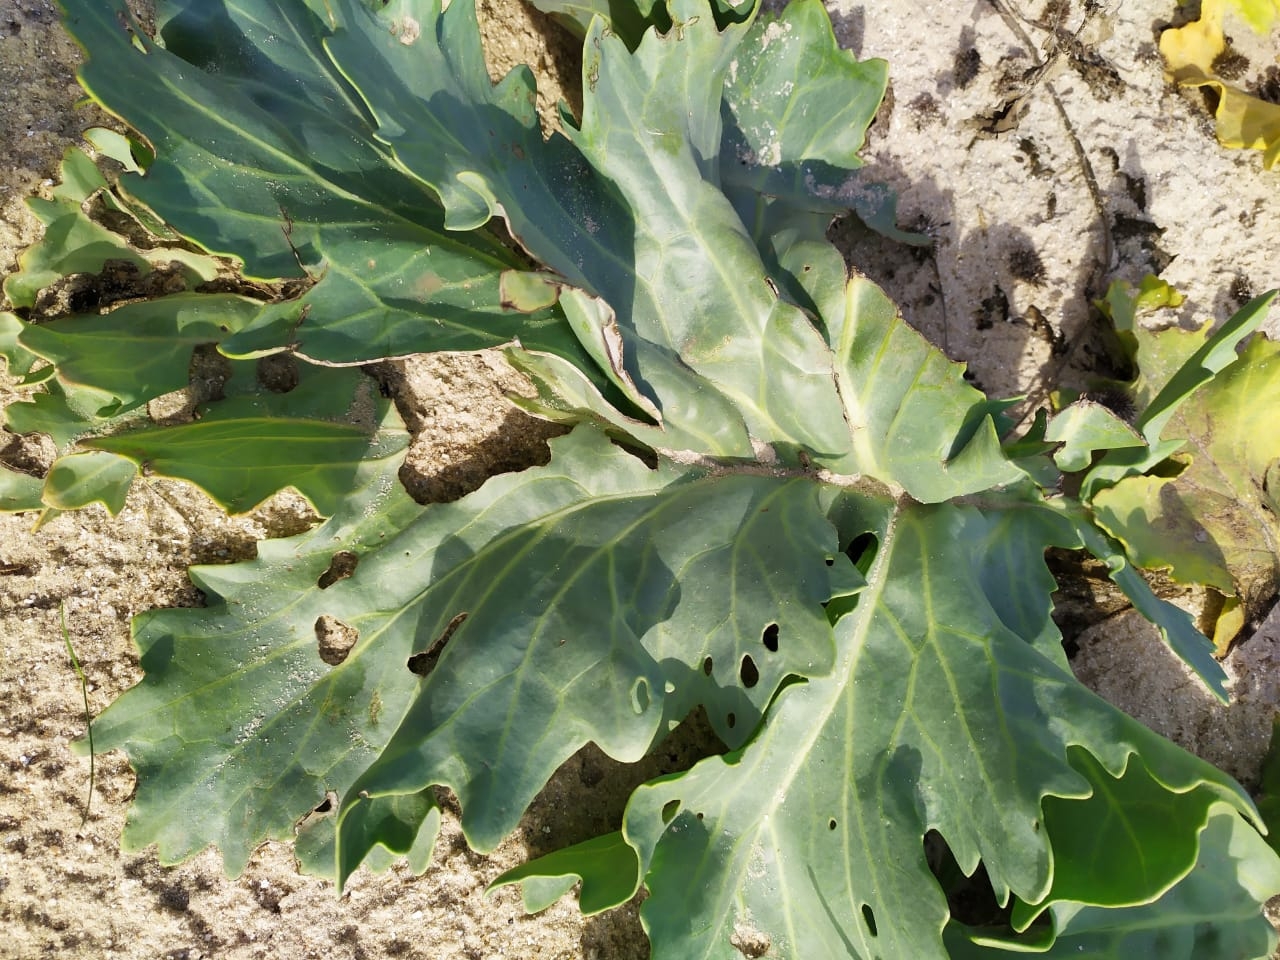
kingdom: Plantae
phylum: Tracheophyta
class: Magnoliopsida
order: Brassicales
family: Brassicaceae
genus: Crambe
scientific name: Crambe maritima
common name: Sea-kale
